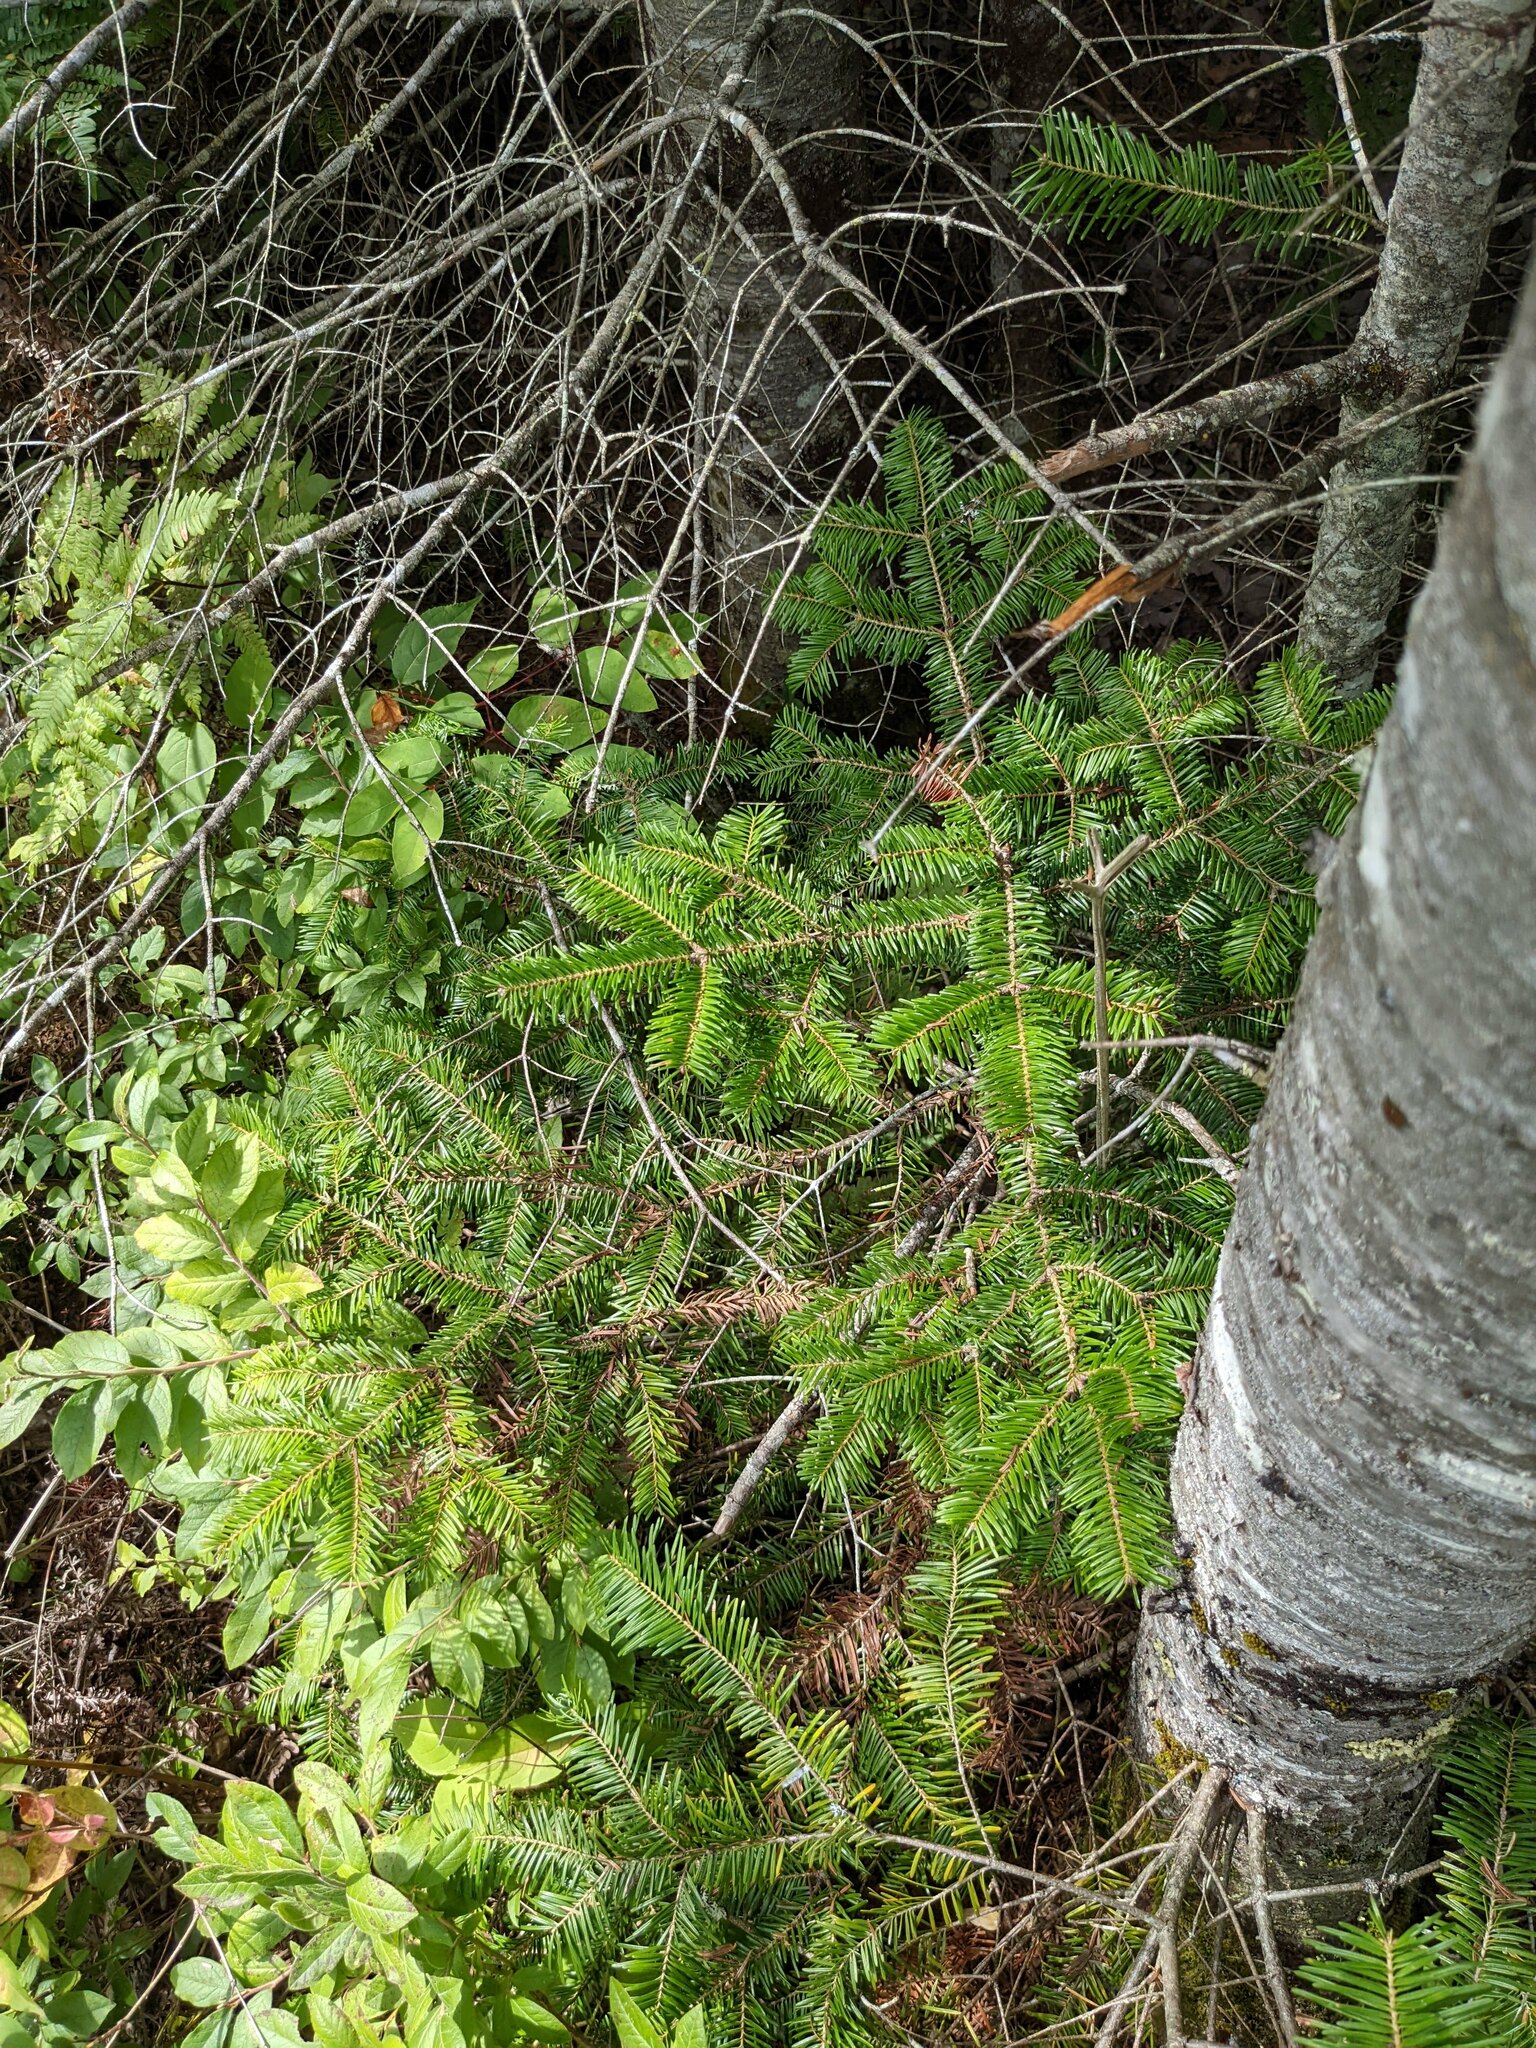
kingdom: Plantae
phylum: Tracheophyta
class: Pinopsida
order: Pinales
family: Pinaceae
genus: Abies
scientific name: Abies balsamea
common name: Balsam fir
